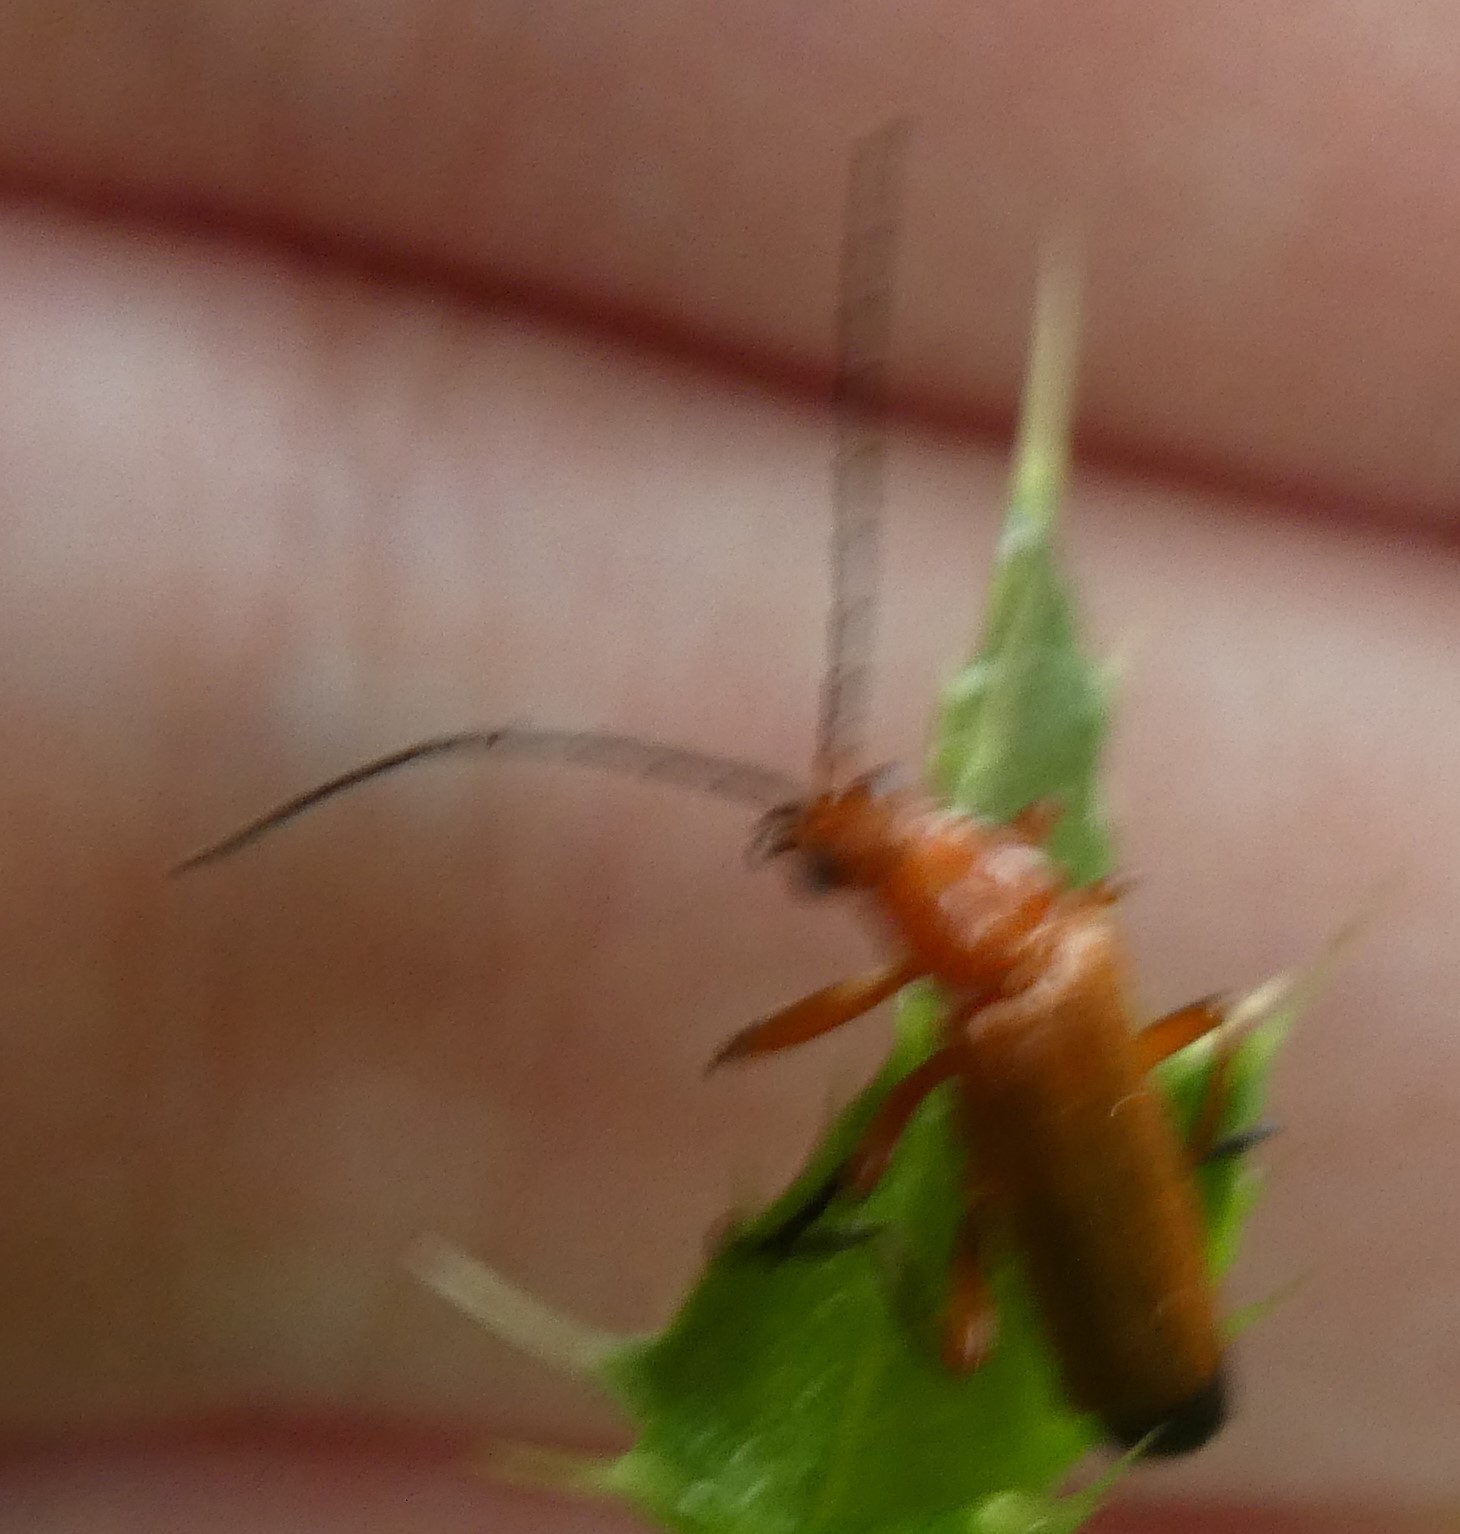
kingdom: Animalia
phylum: Arthropoda
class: Insecta
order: Coleoptera
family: Cantharidae
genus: Rhagonycha
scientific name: Rhagonycha fulva
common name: Common red soldier beetle
